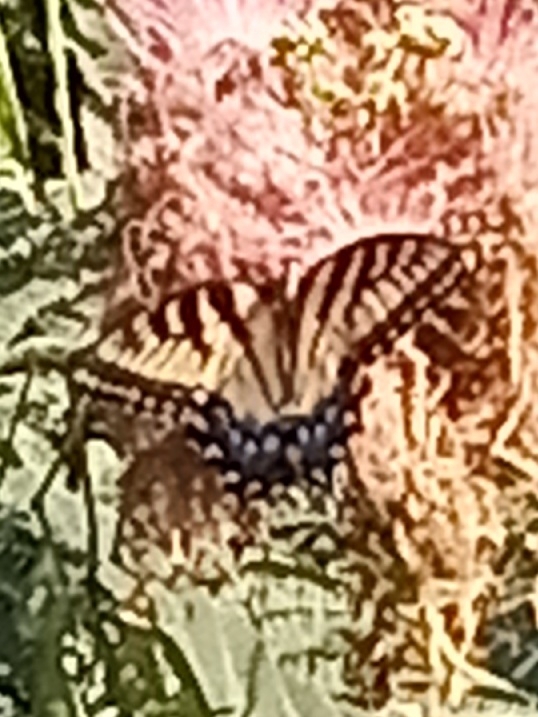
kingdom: Animalia
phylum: Arthropoda
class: Insecta
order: Lepidoptera
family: Papilionidae
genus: Papilio
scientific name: Papilio glaucus
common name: Tiger swallowtail
